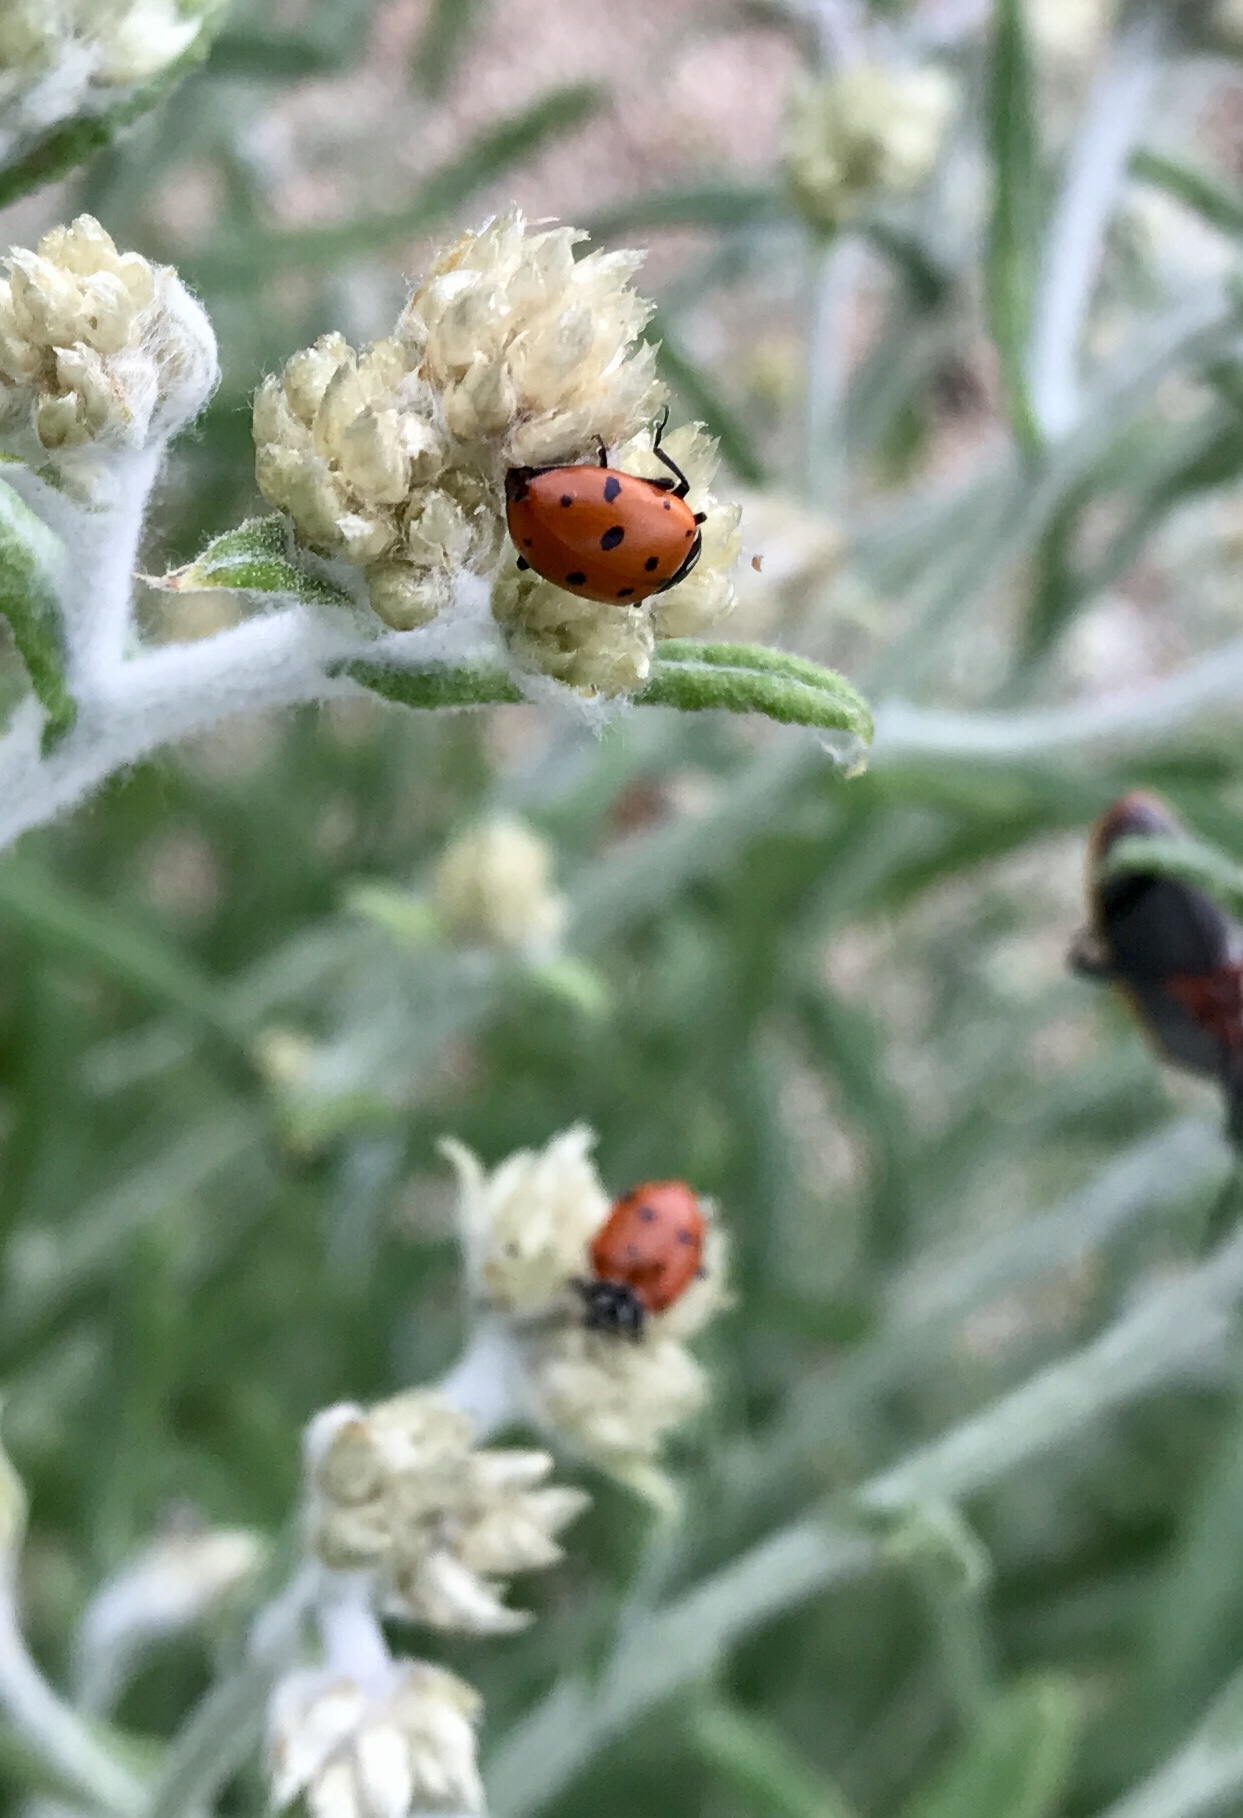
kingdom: Animalia
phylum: Arthropoda
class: Insecta
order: Coleoptera
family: Coccinellidae
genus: Hippodamia
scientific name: Hippodamia convergens
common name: Convergent lady beetle
